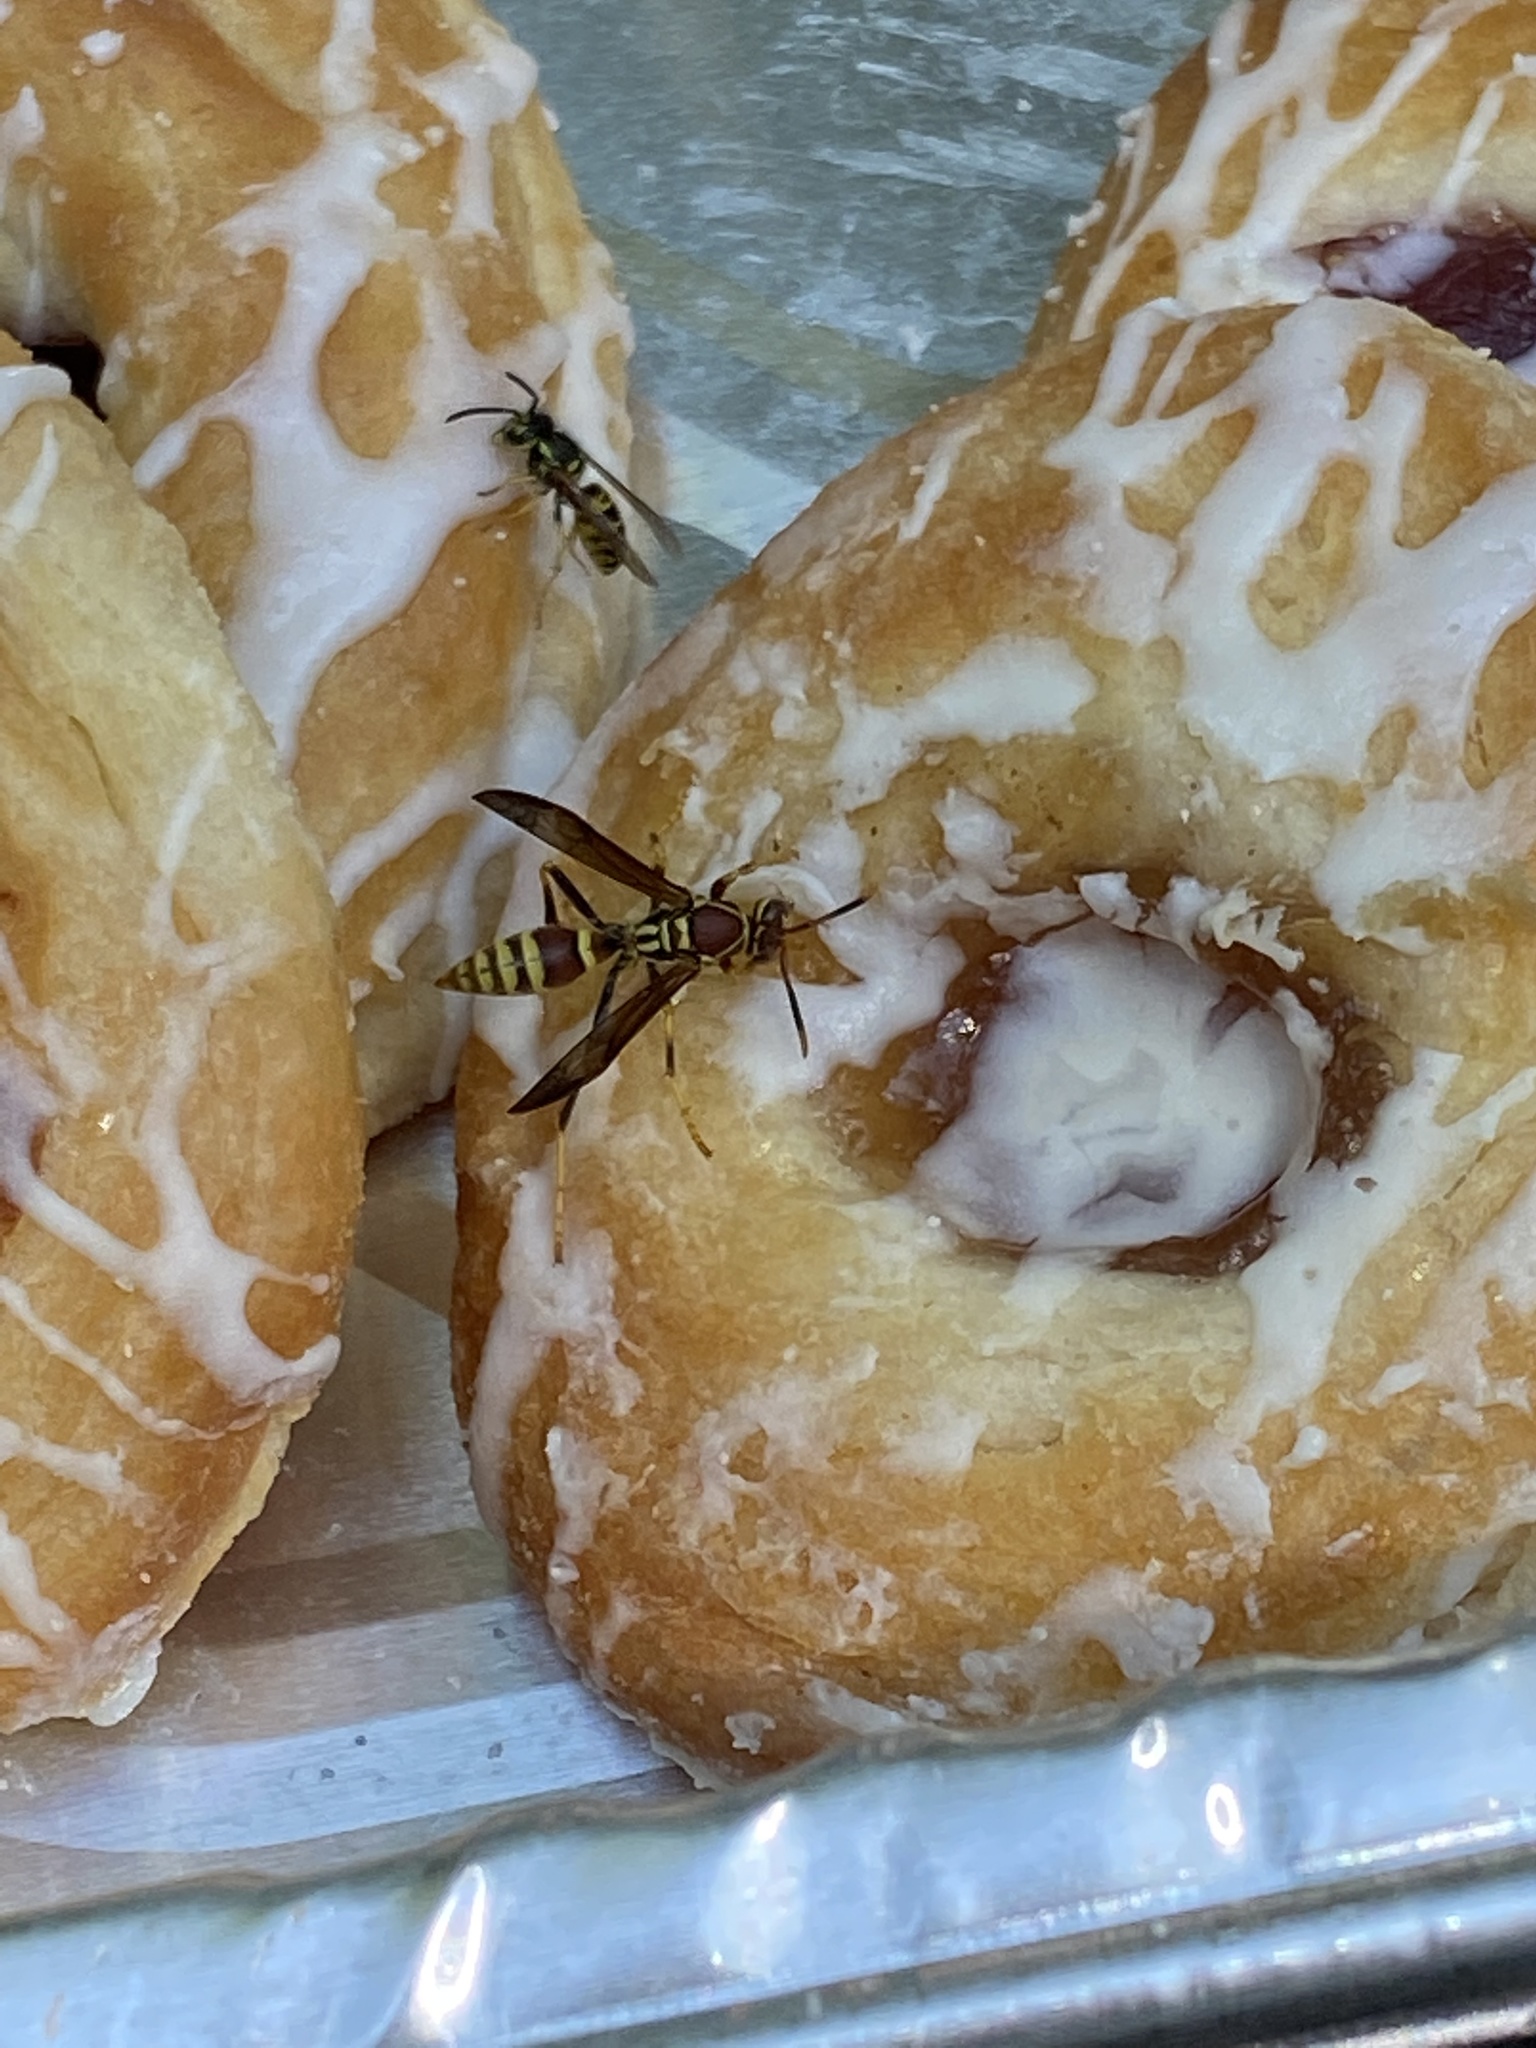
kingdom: Animalia
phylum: Arthropoda
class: Insecta
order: Hymenoptera
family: Eumenidae
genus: Polistes
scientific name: Polistes exclamans
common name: Paper wasp
